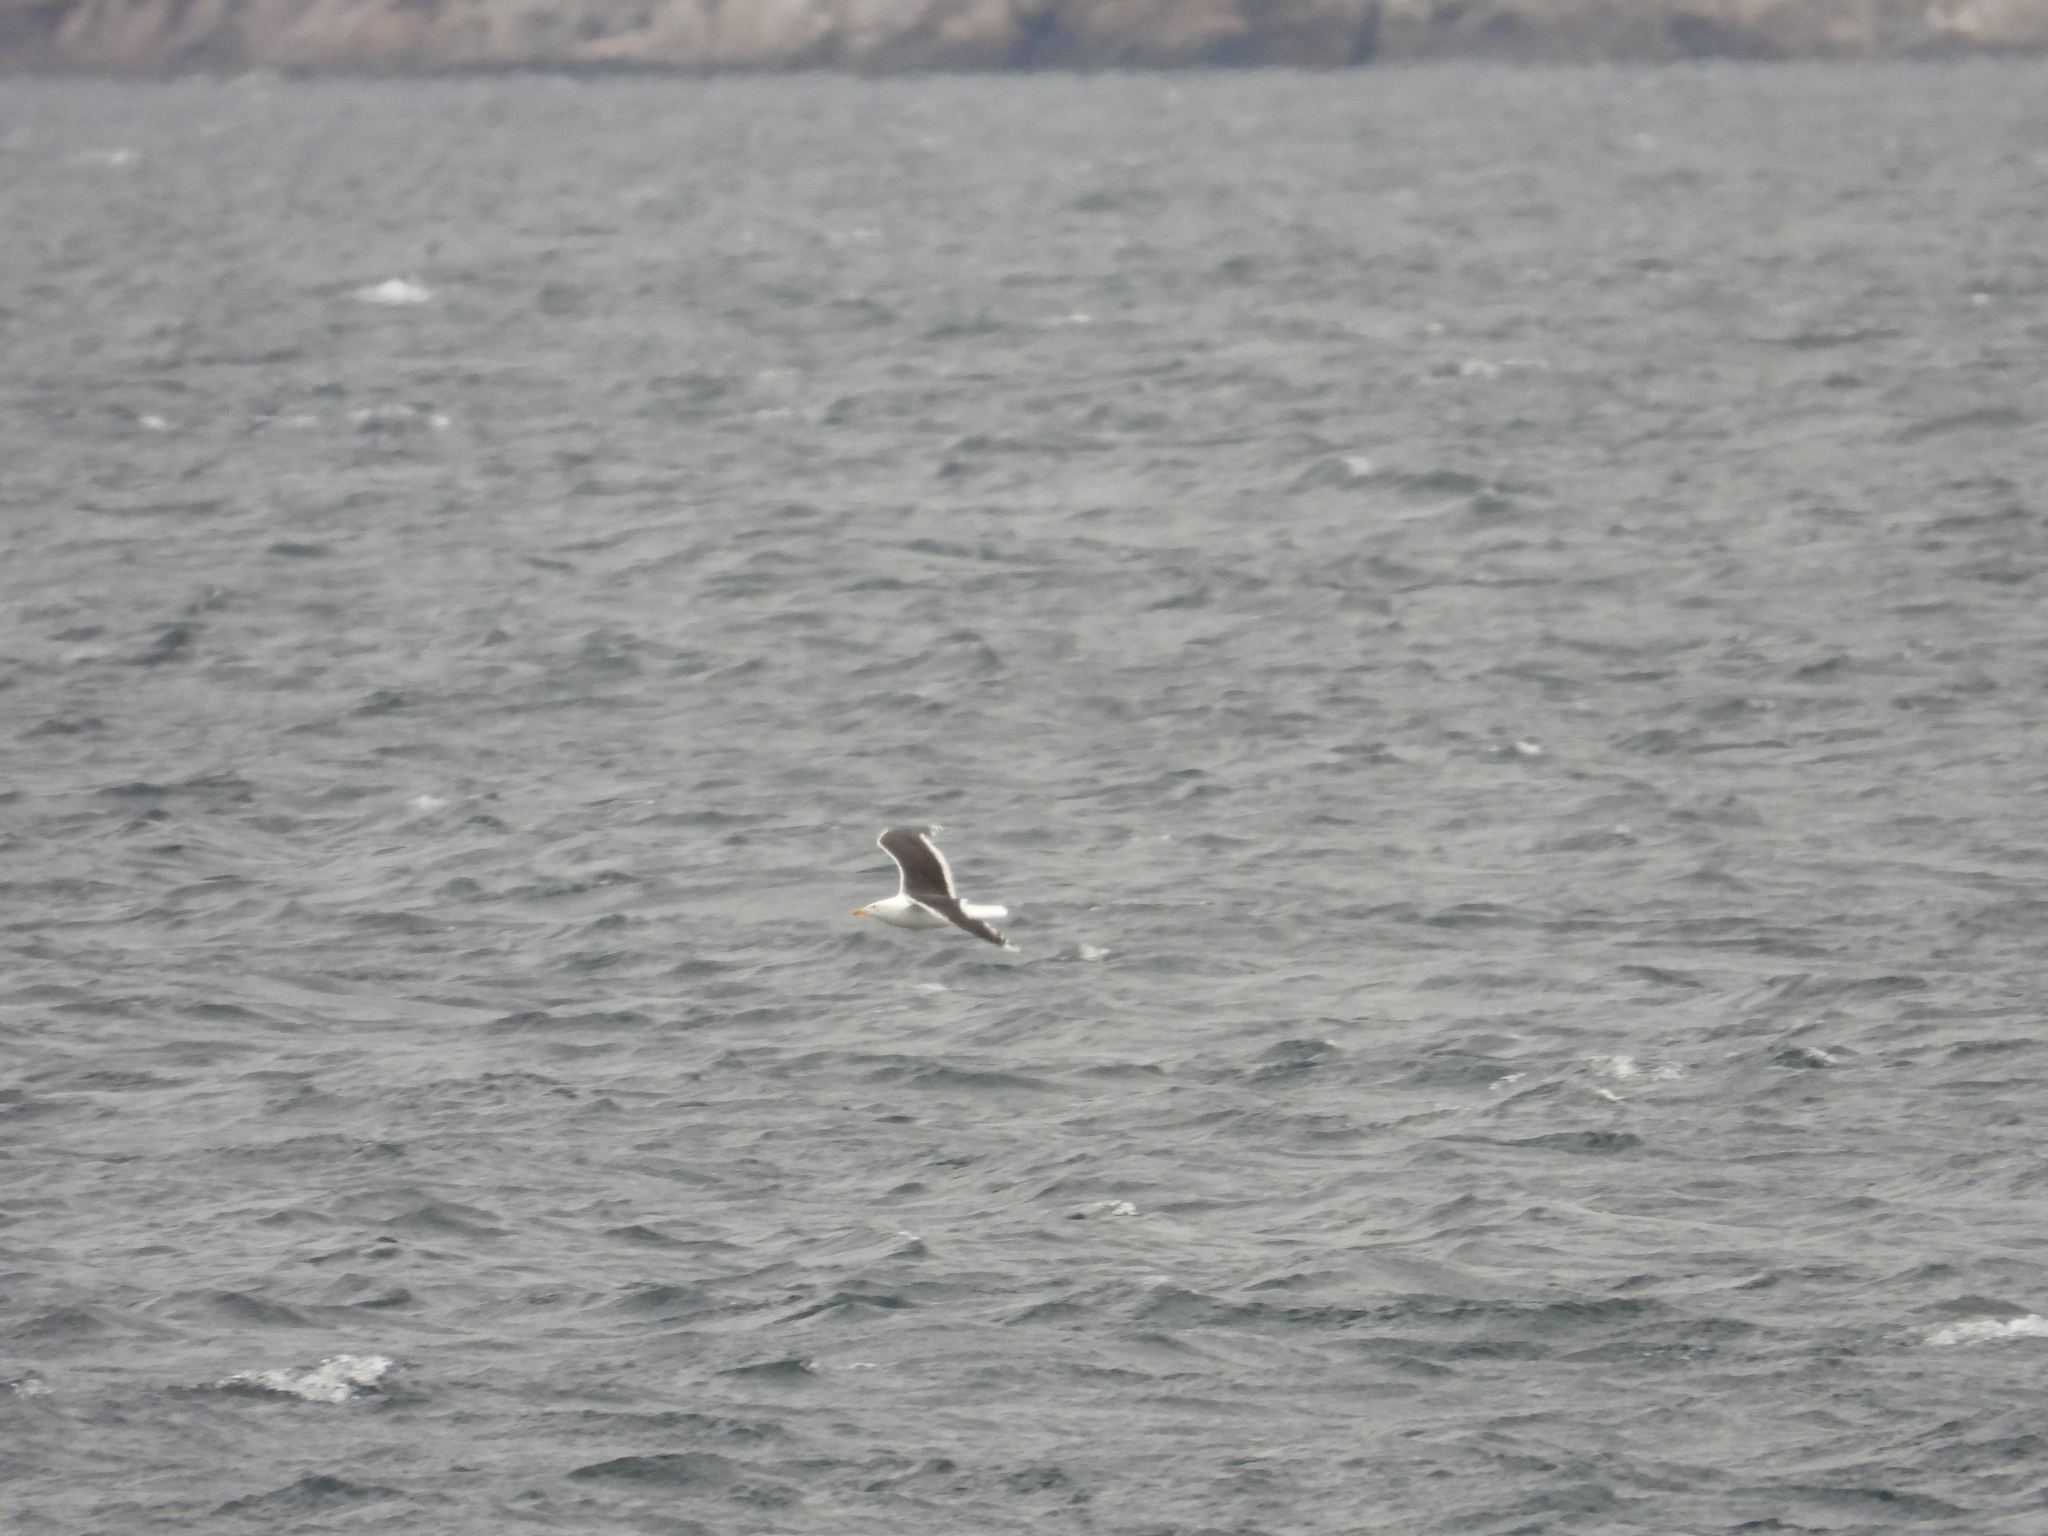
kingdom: Animalia
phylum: Chordata
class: Aves
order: Charadriiformes
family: Laridae
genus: Larus
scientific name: Larus marinus
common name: Great black-backed gull
